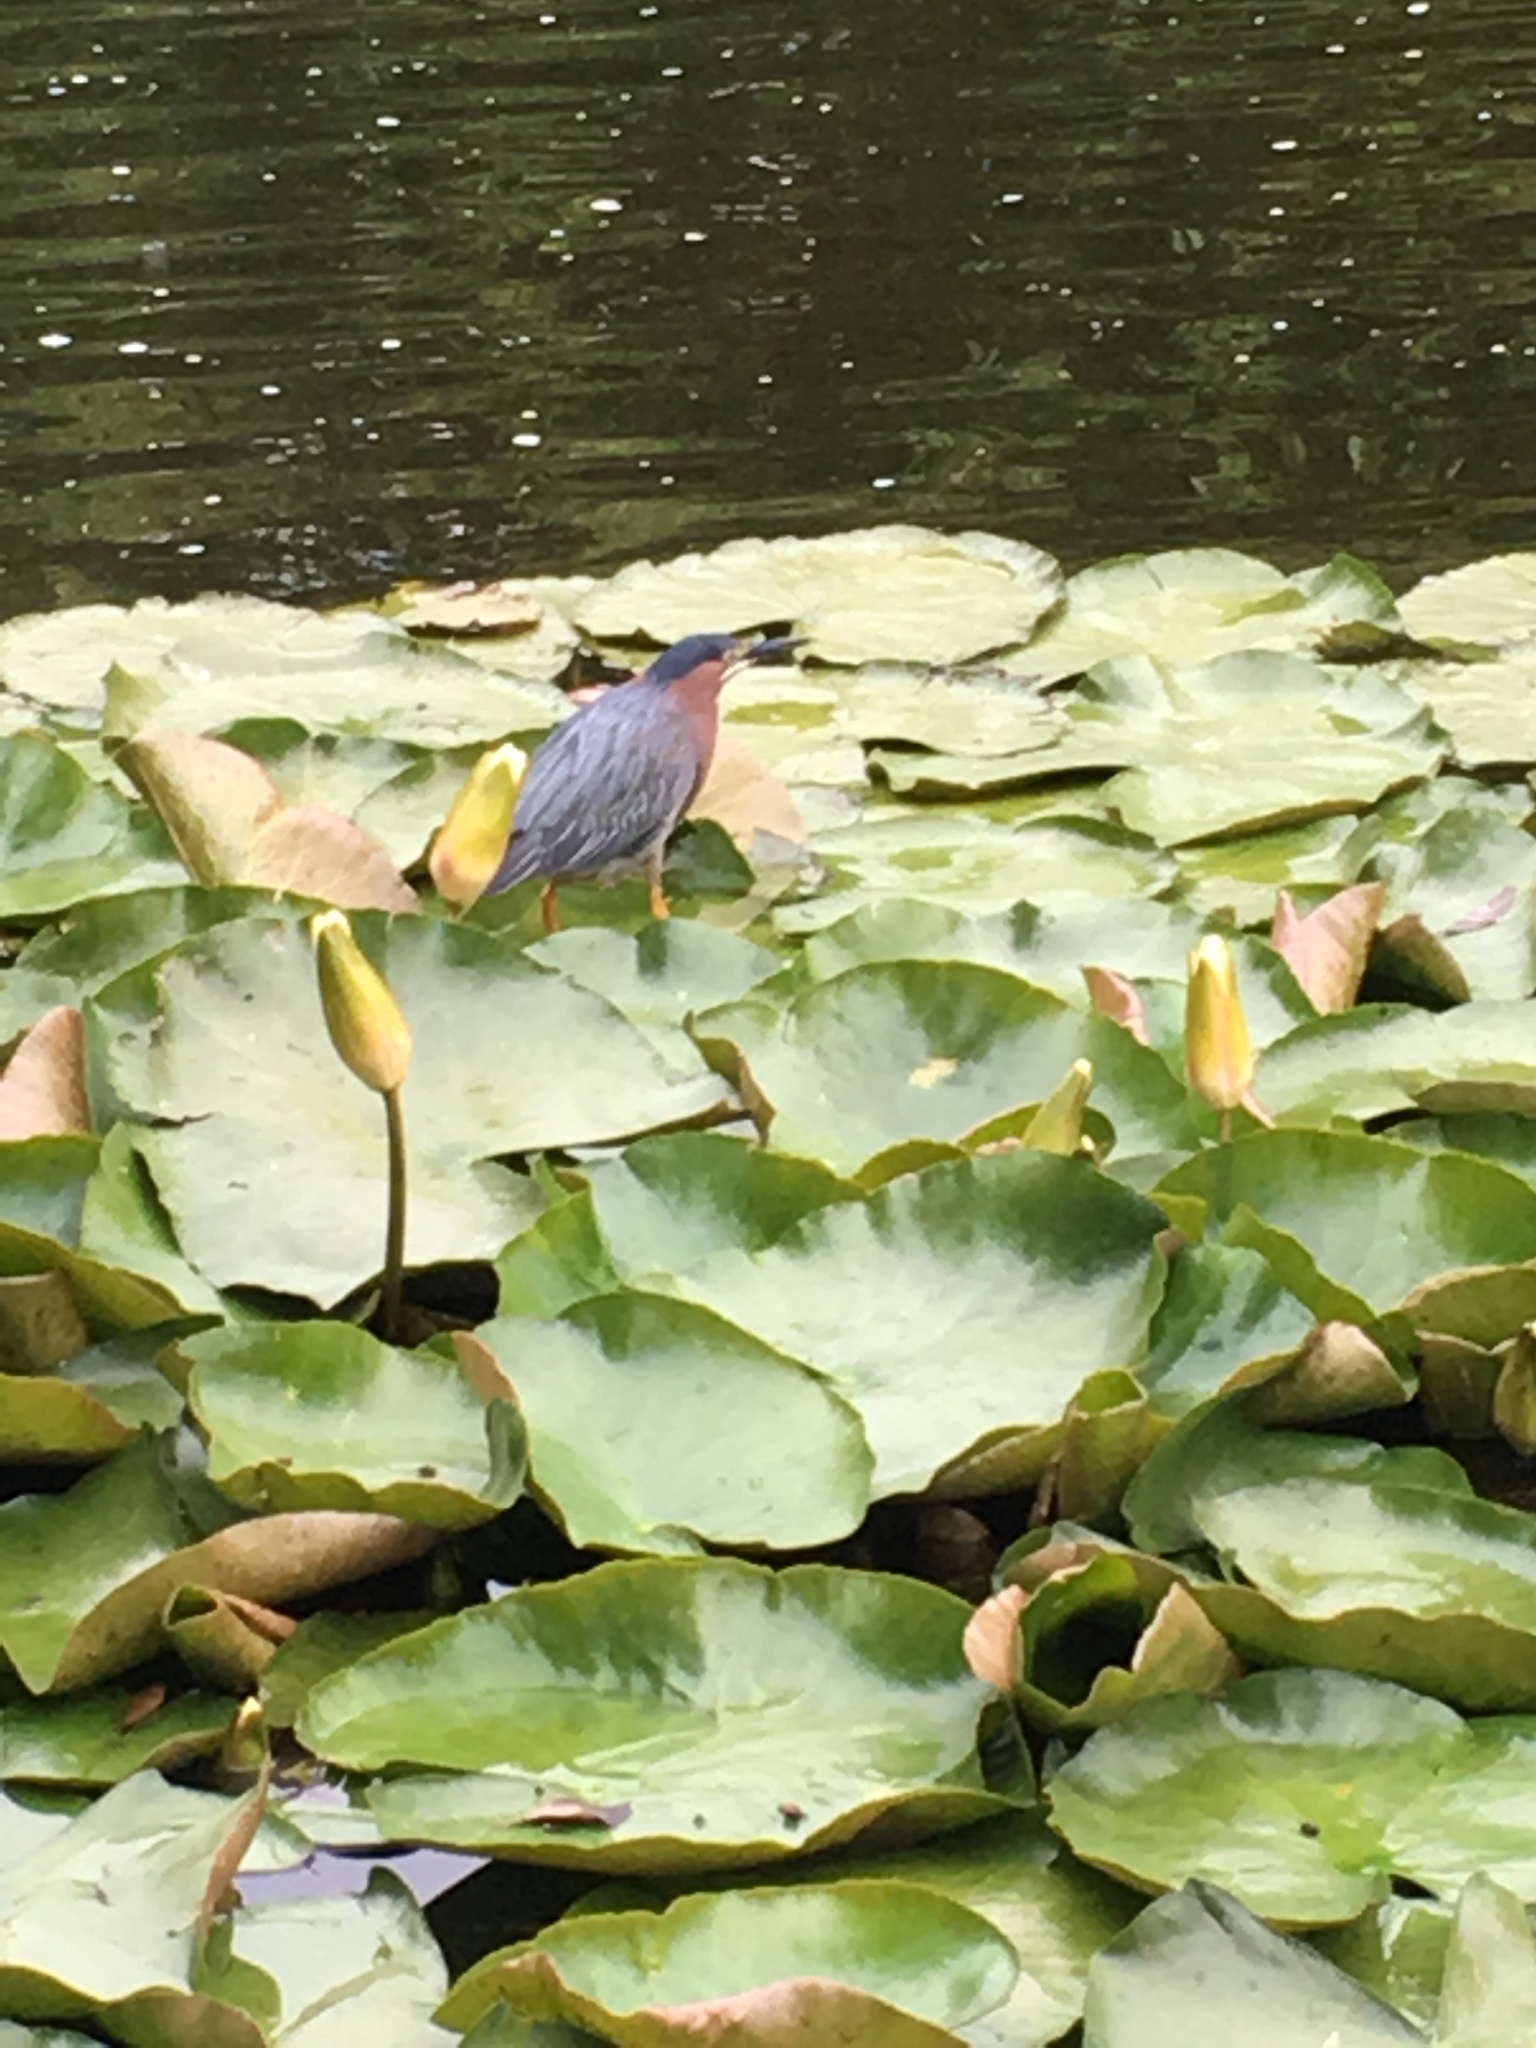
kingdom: Animalia
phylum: Chordata
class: Aves
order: Pelecaniformes
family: Ardeidae
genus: Butorides
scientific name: Butorides virescens
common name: Green heron
